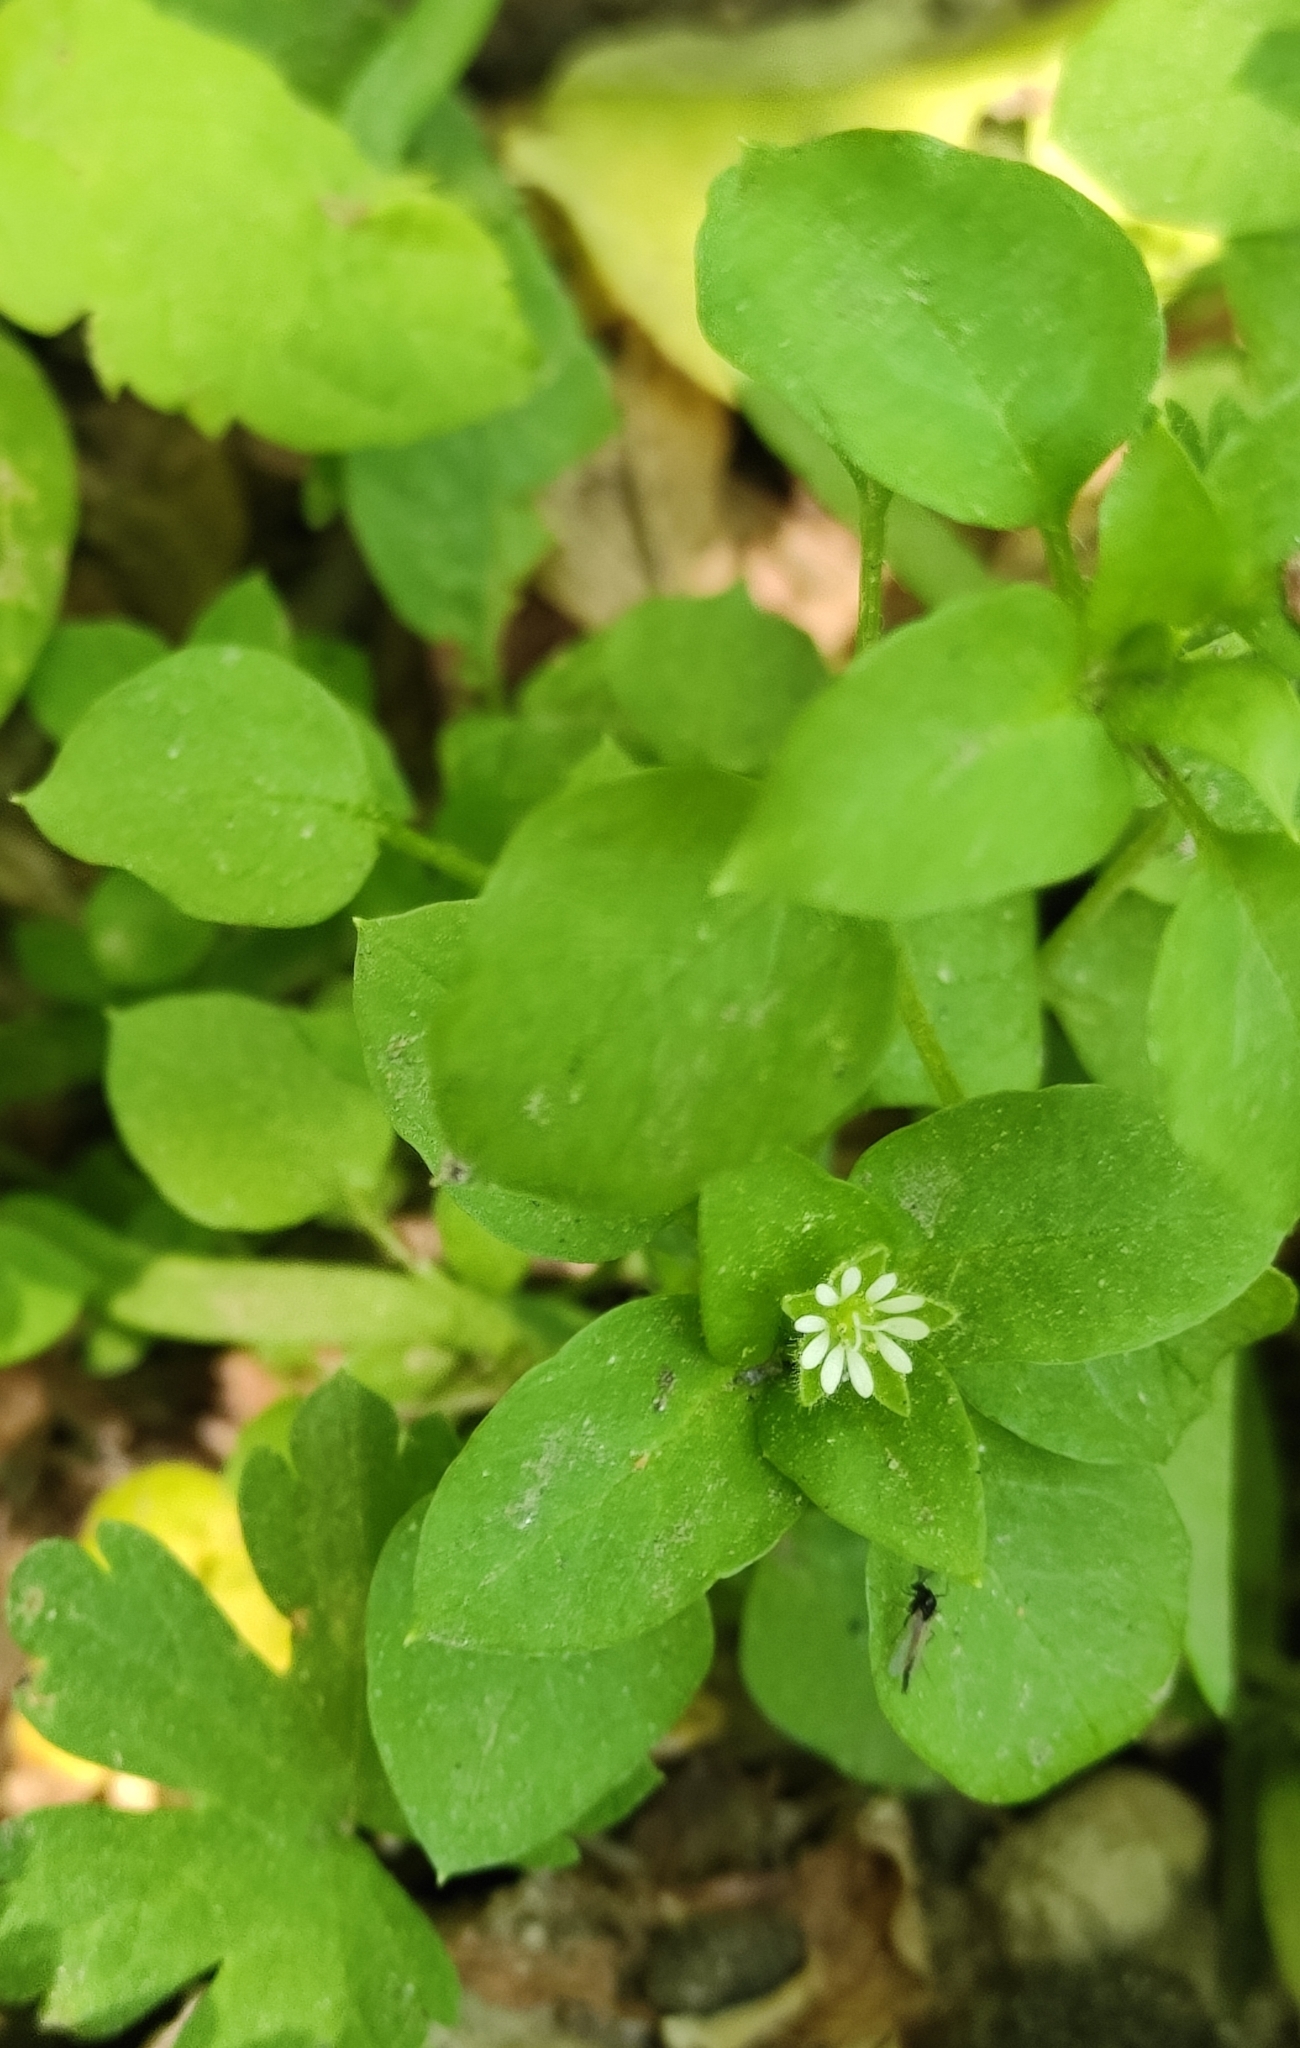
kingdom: Plantae
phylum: Tracheophyta
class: Magnoliopsida
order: Caryophyllales
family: Caryophyllaceae
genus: Stellaria
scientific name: Stellaria media
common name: Common chickweed
